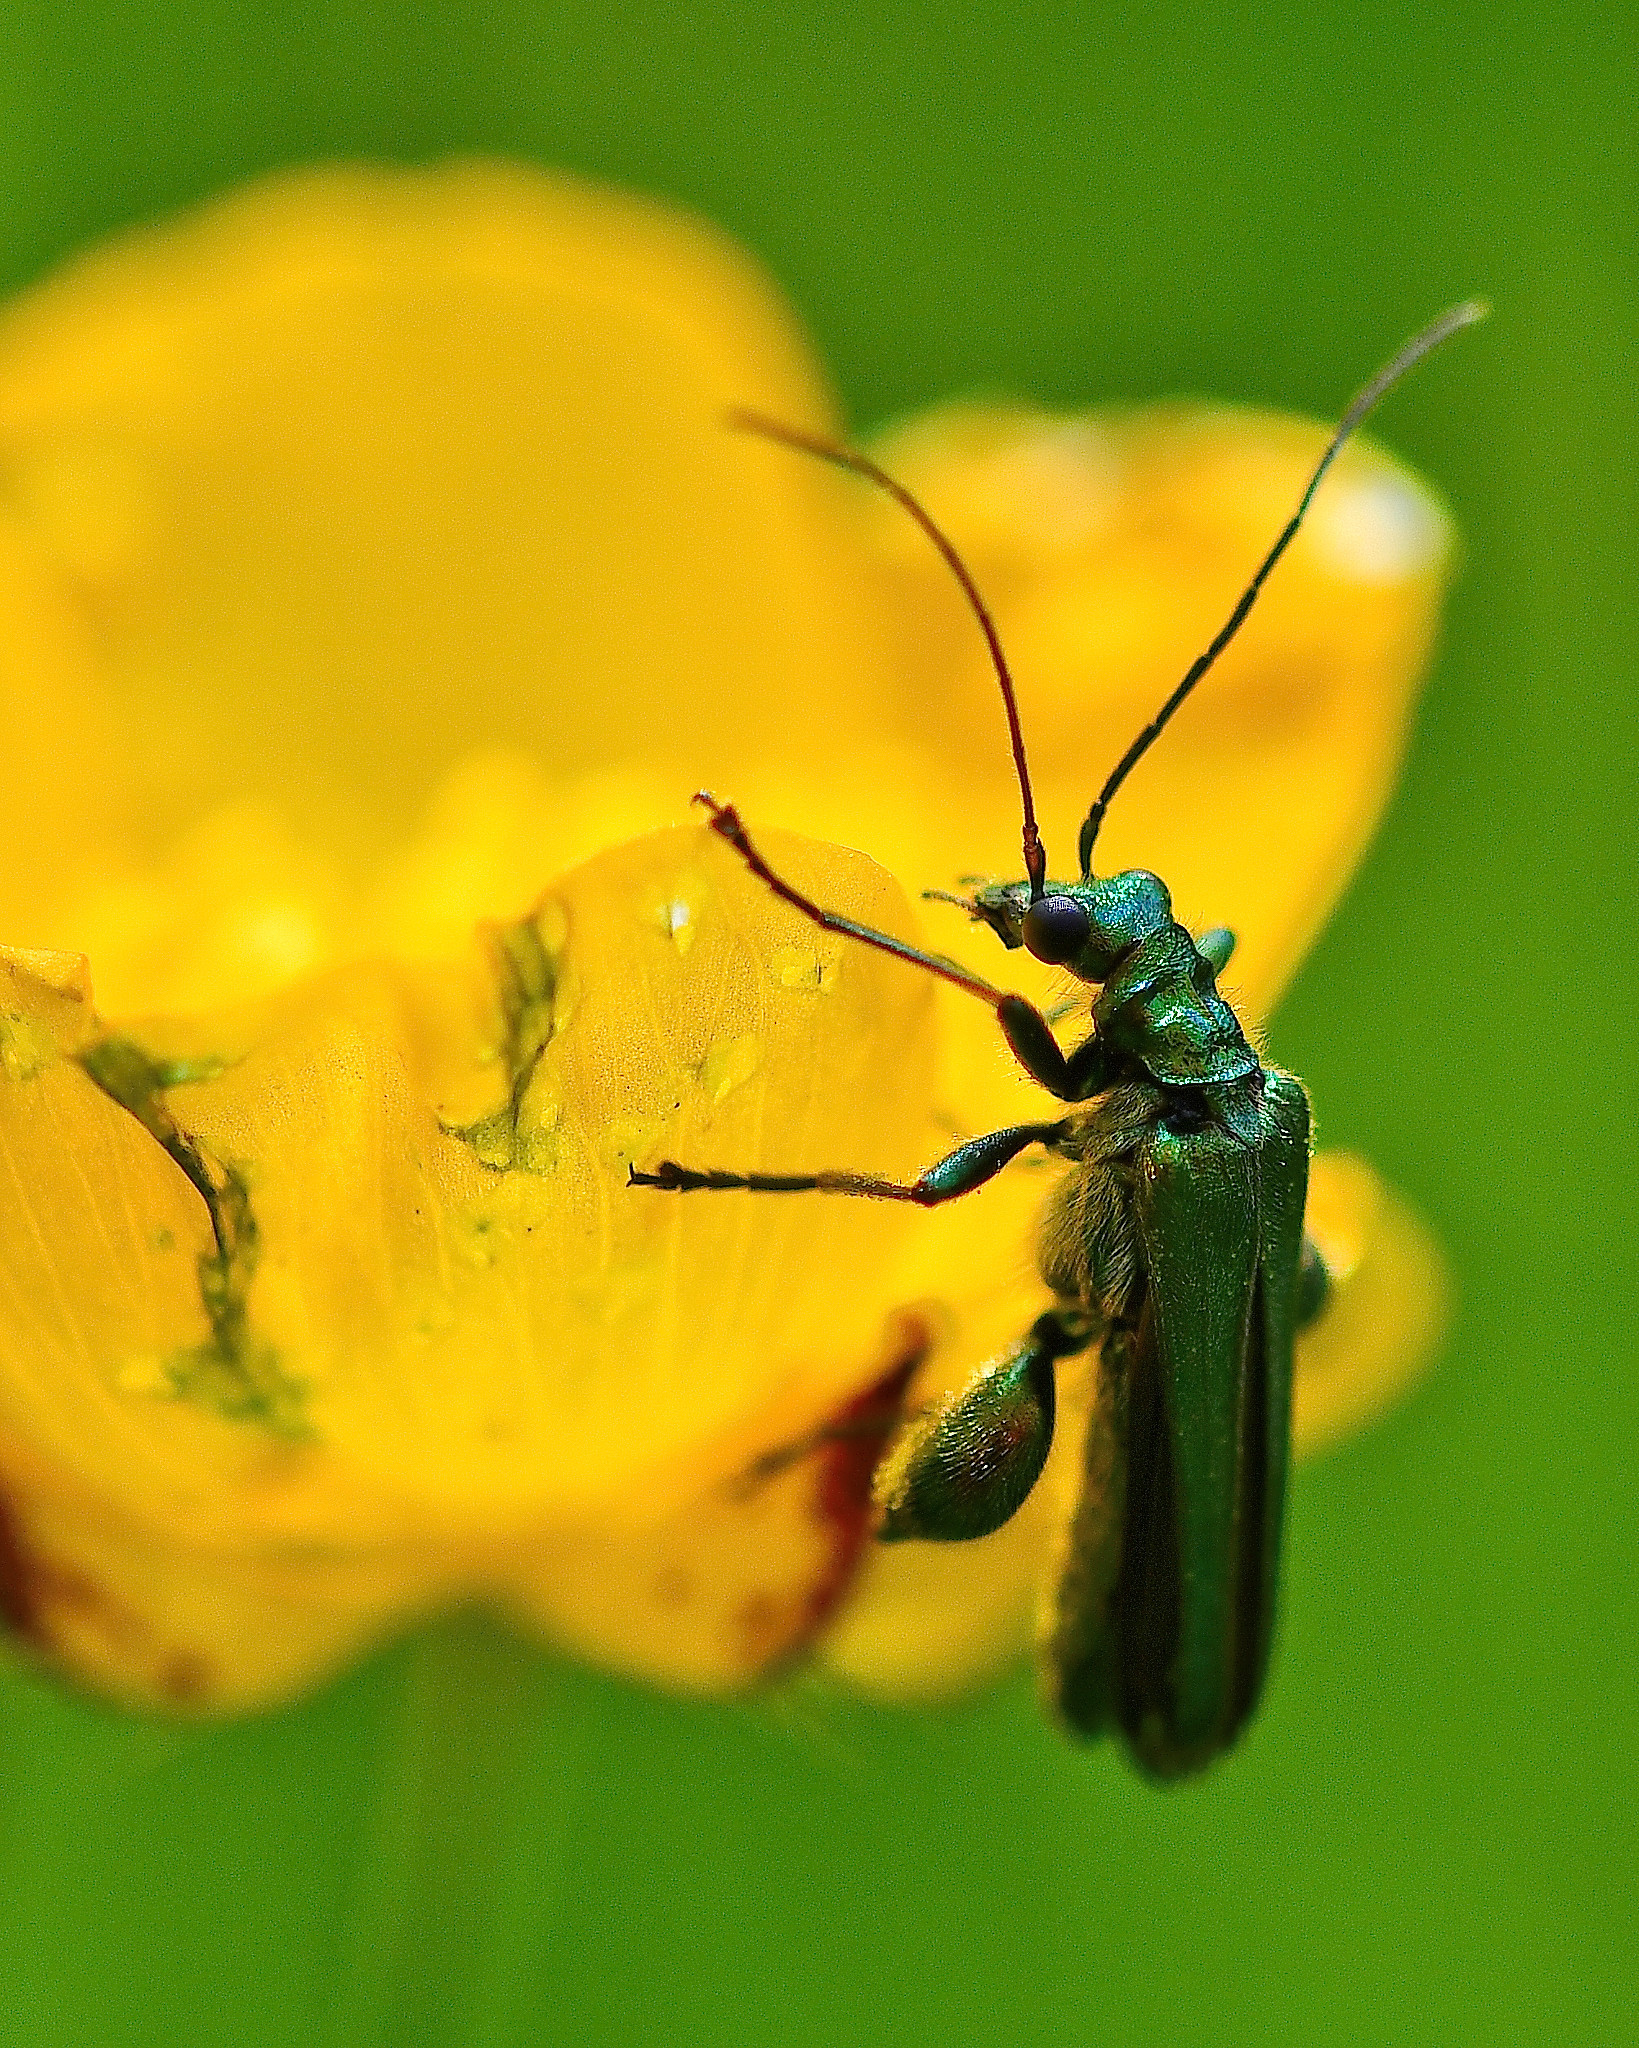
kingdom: Animalia
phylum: Arthropoda
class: Insecta
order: Coleoptera
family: Oedemeridae
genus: Oedemera
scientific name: Oedemera nobilis
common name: Swollen-thighed beetle
